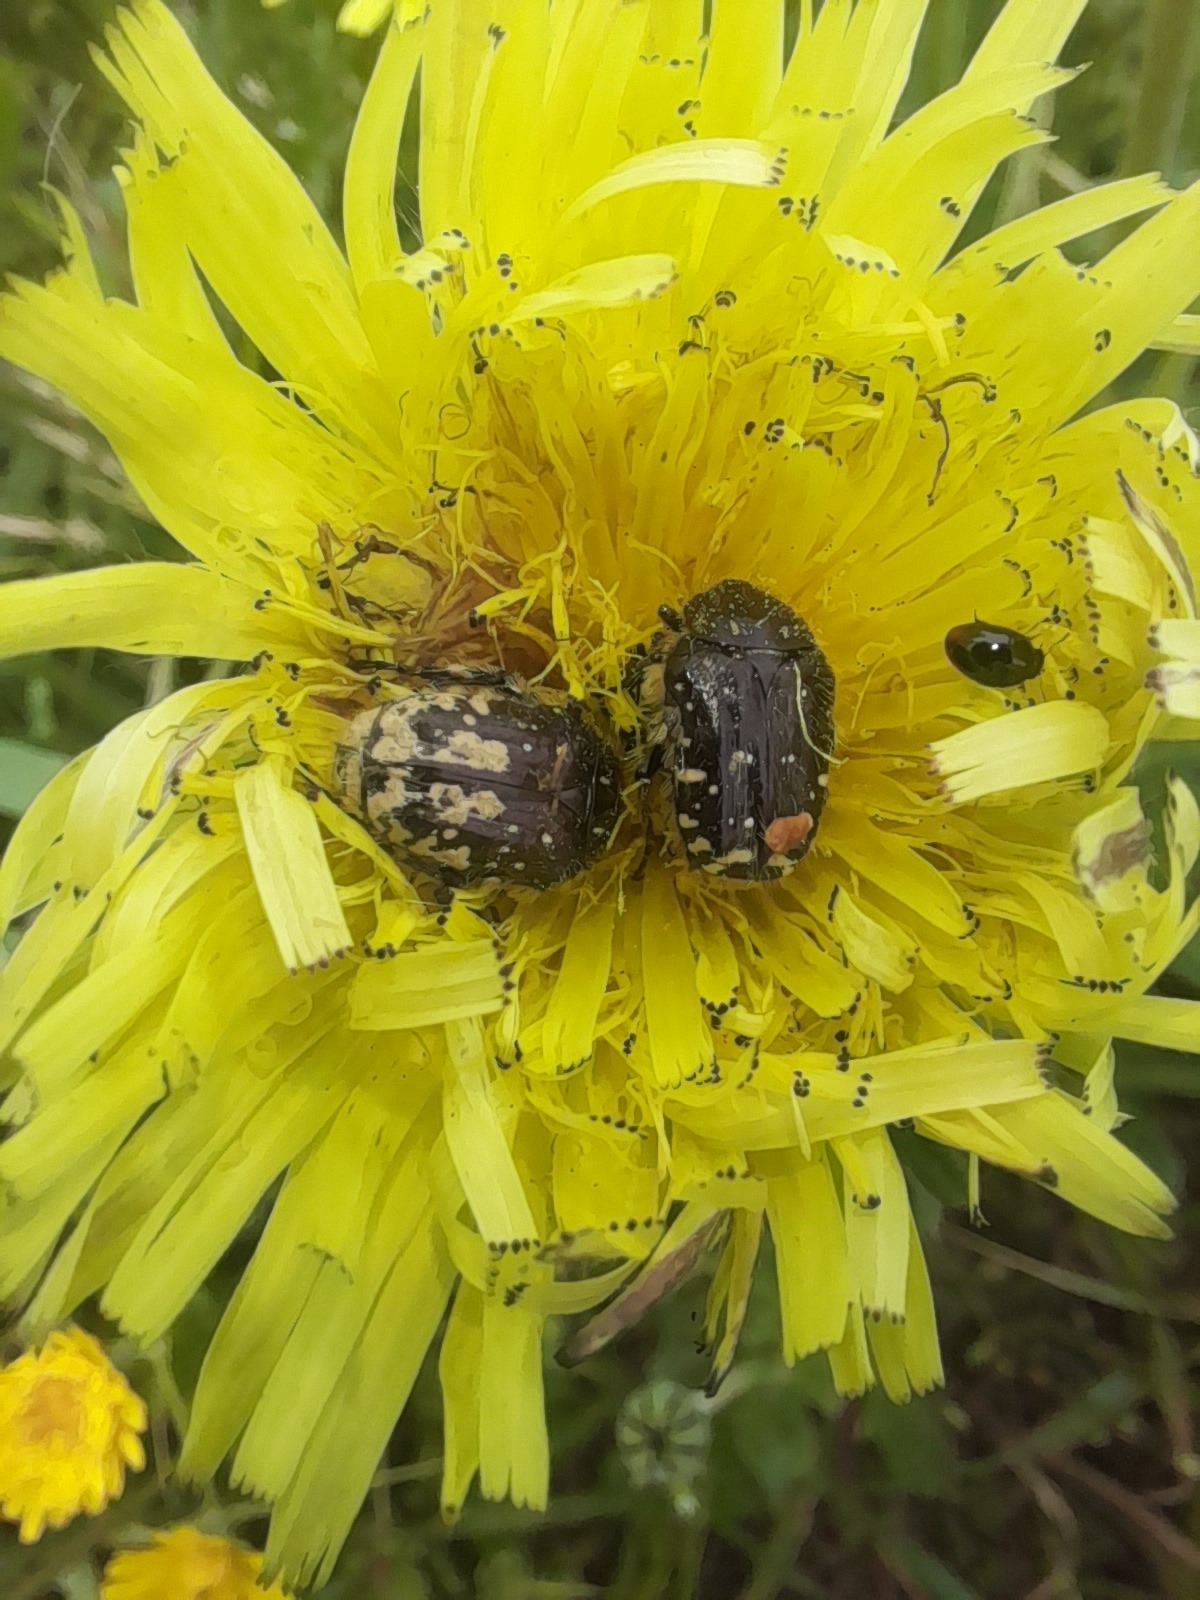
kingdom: Animalia
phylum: Arthropoda
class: Insecta
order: Coleoptera
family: Scarabaeidae
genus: Oxythyrea
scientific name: Oxythyrea funesta
